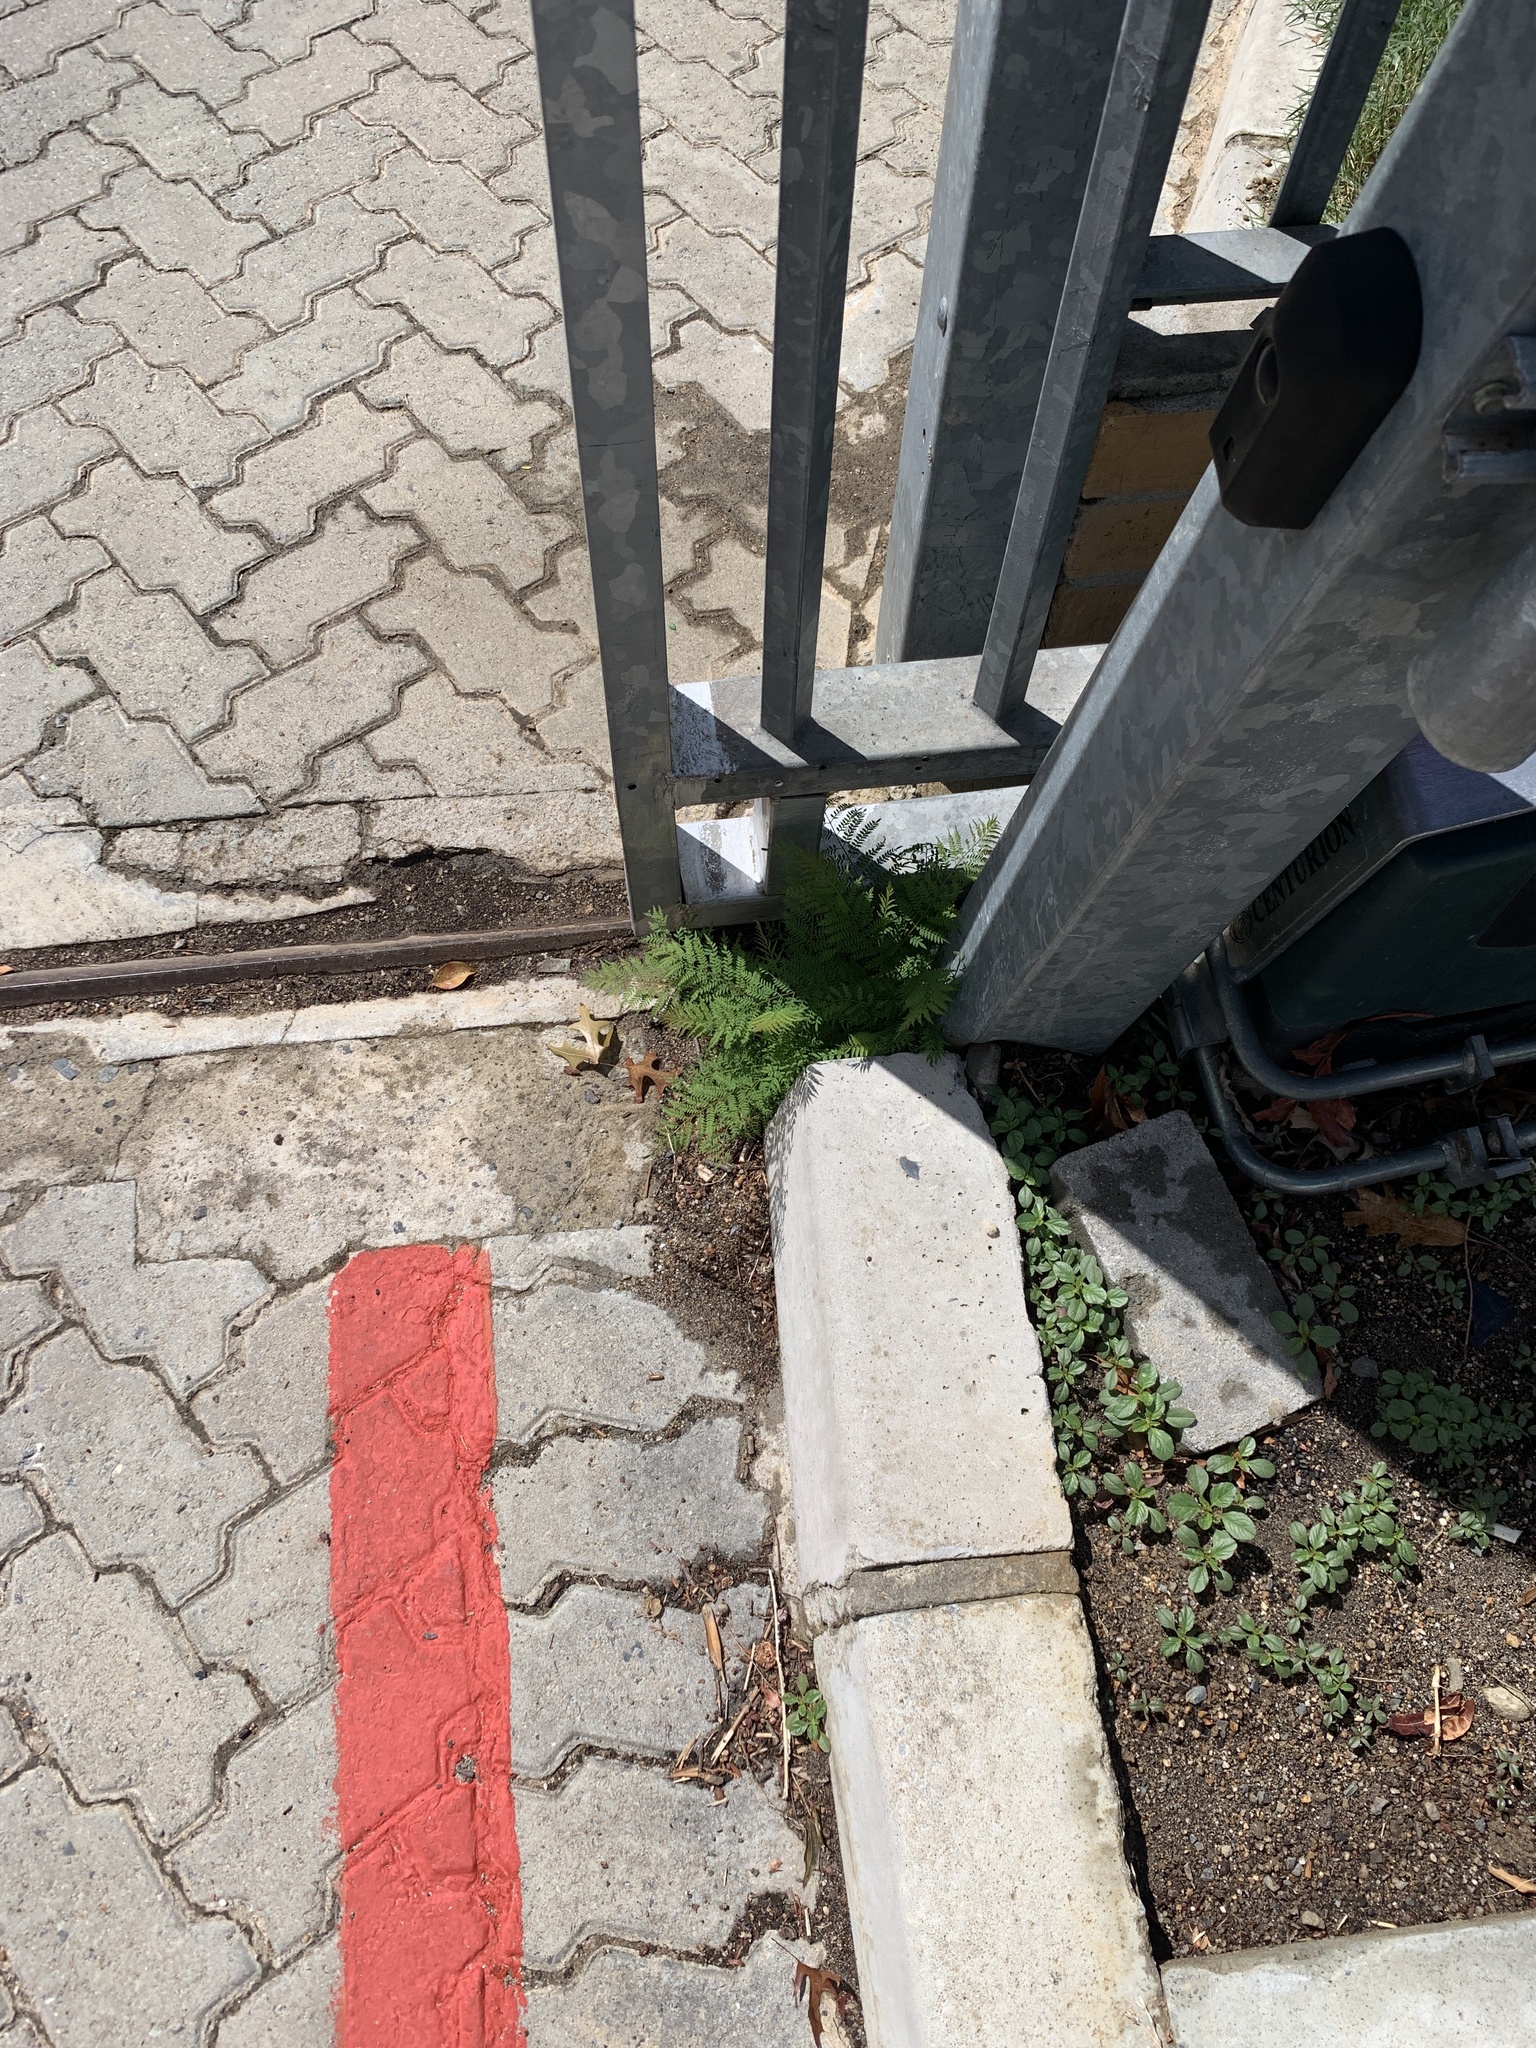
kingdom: Plantae
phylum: Tracheophyta
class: Magnoliopsida
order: Lamiales
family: Bignoniaceae
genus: Jacaranda
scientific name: Jacaranda mimosifolia
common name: Black poui
